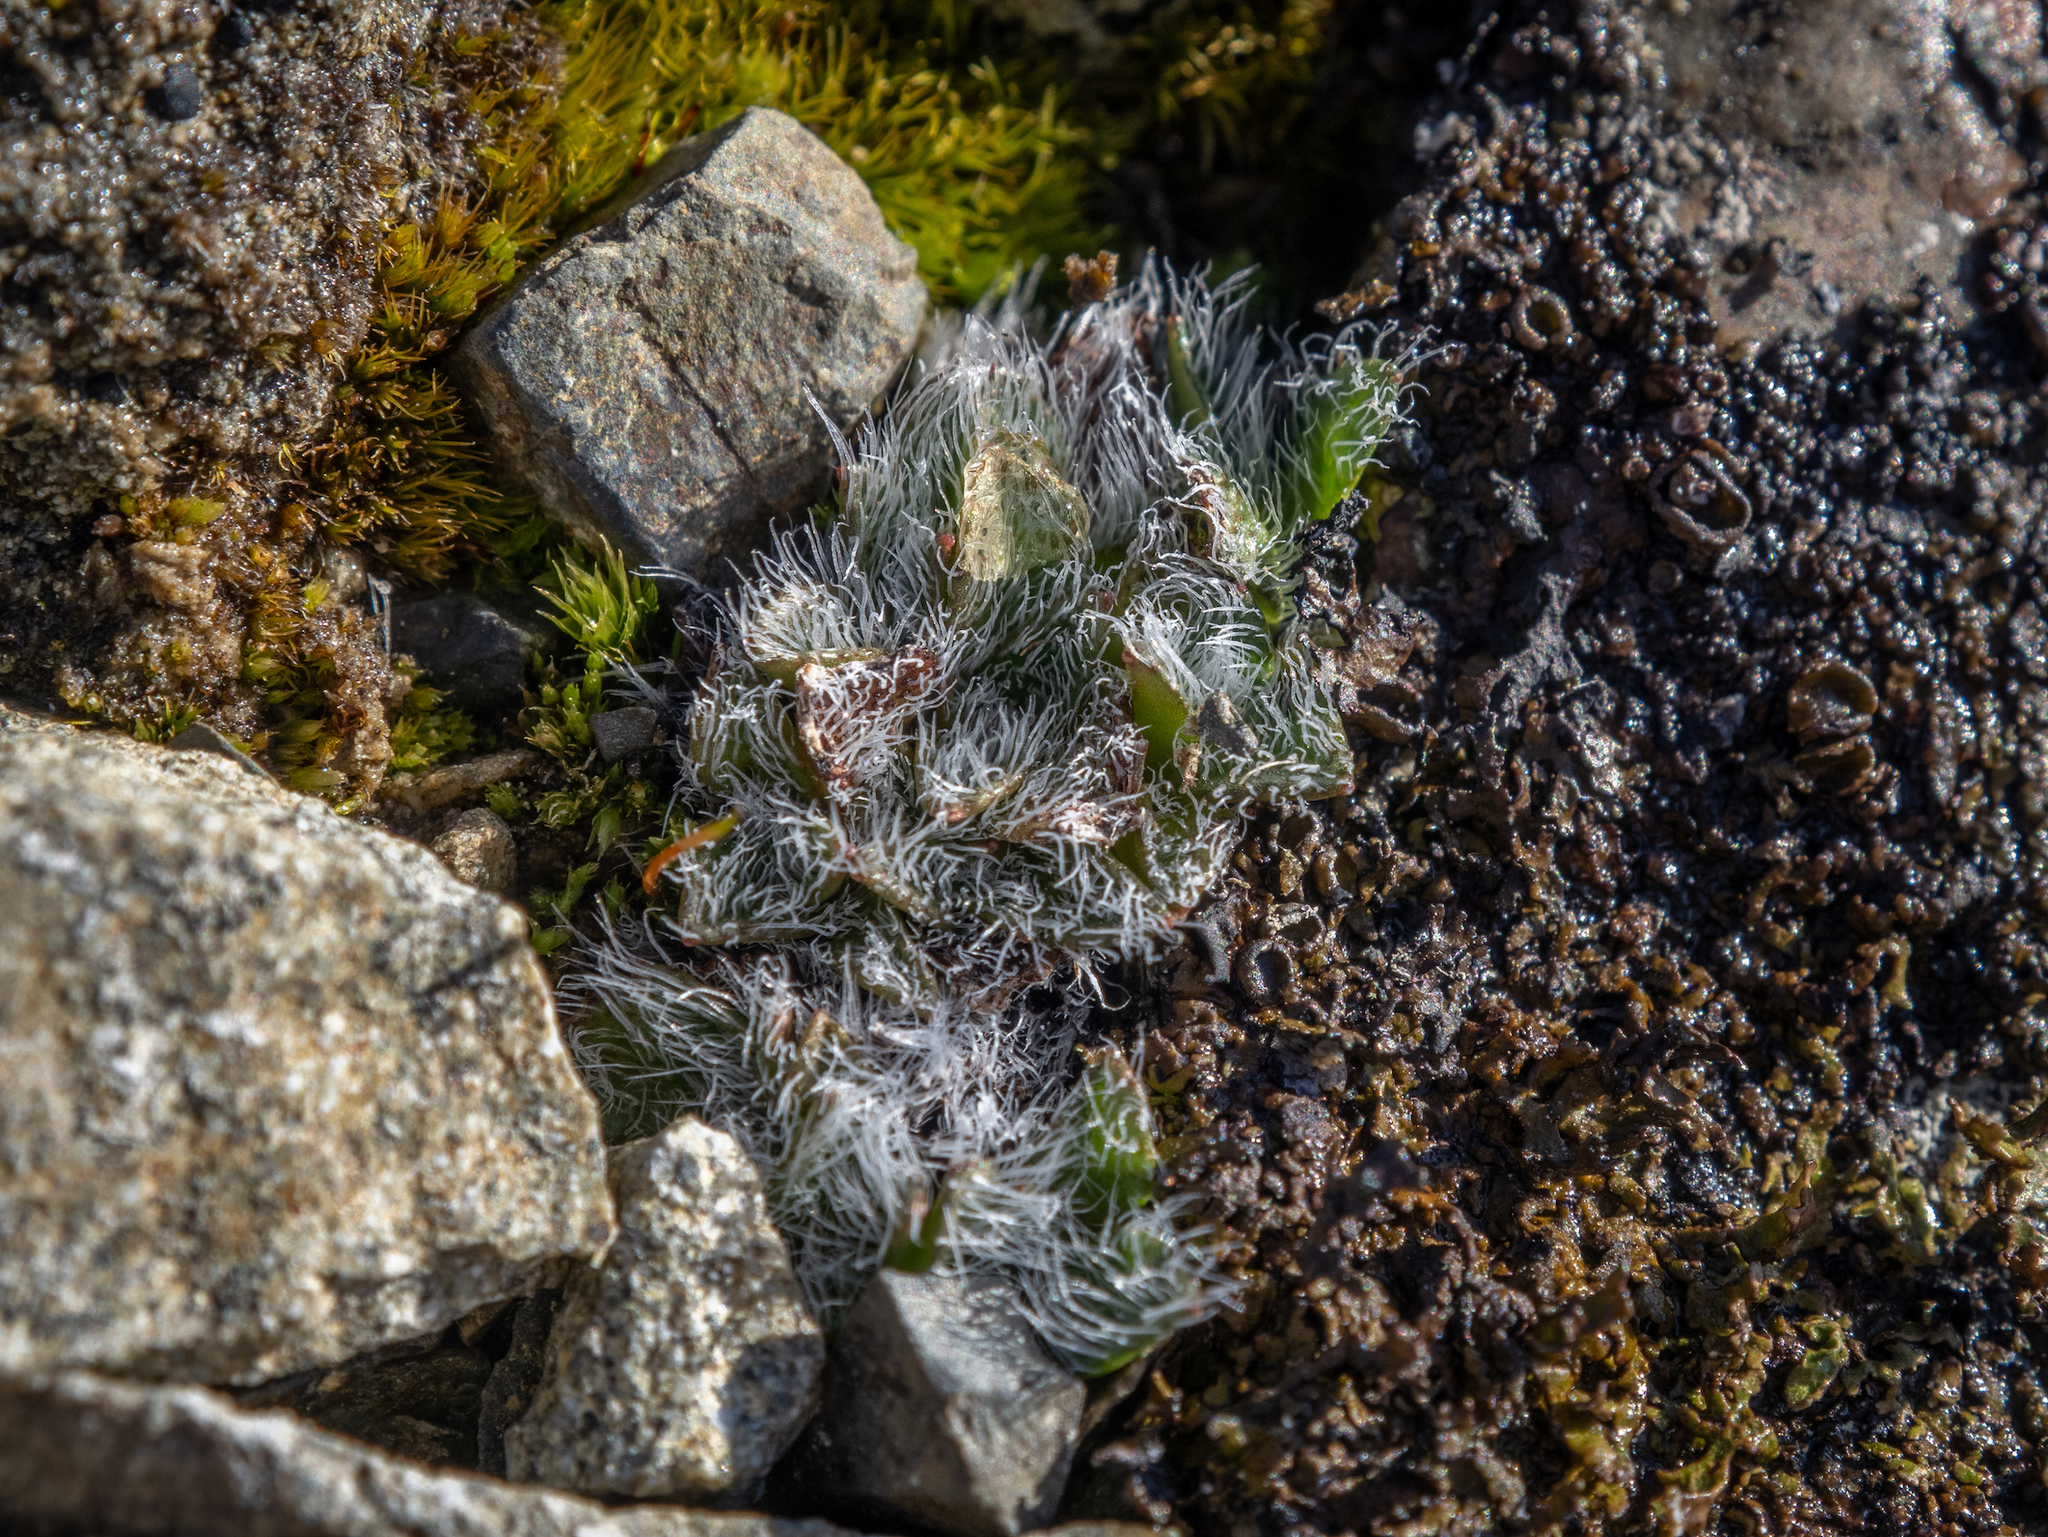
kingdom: Plantae
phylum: Tracheophyta
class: Magnoliopsida
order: Boraginales
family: Boraginaceae
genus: Myosotis
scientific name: Myosotis lyallii
